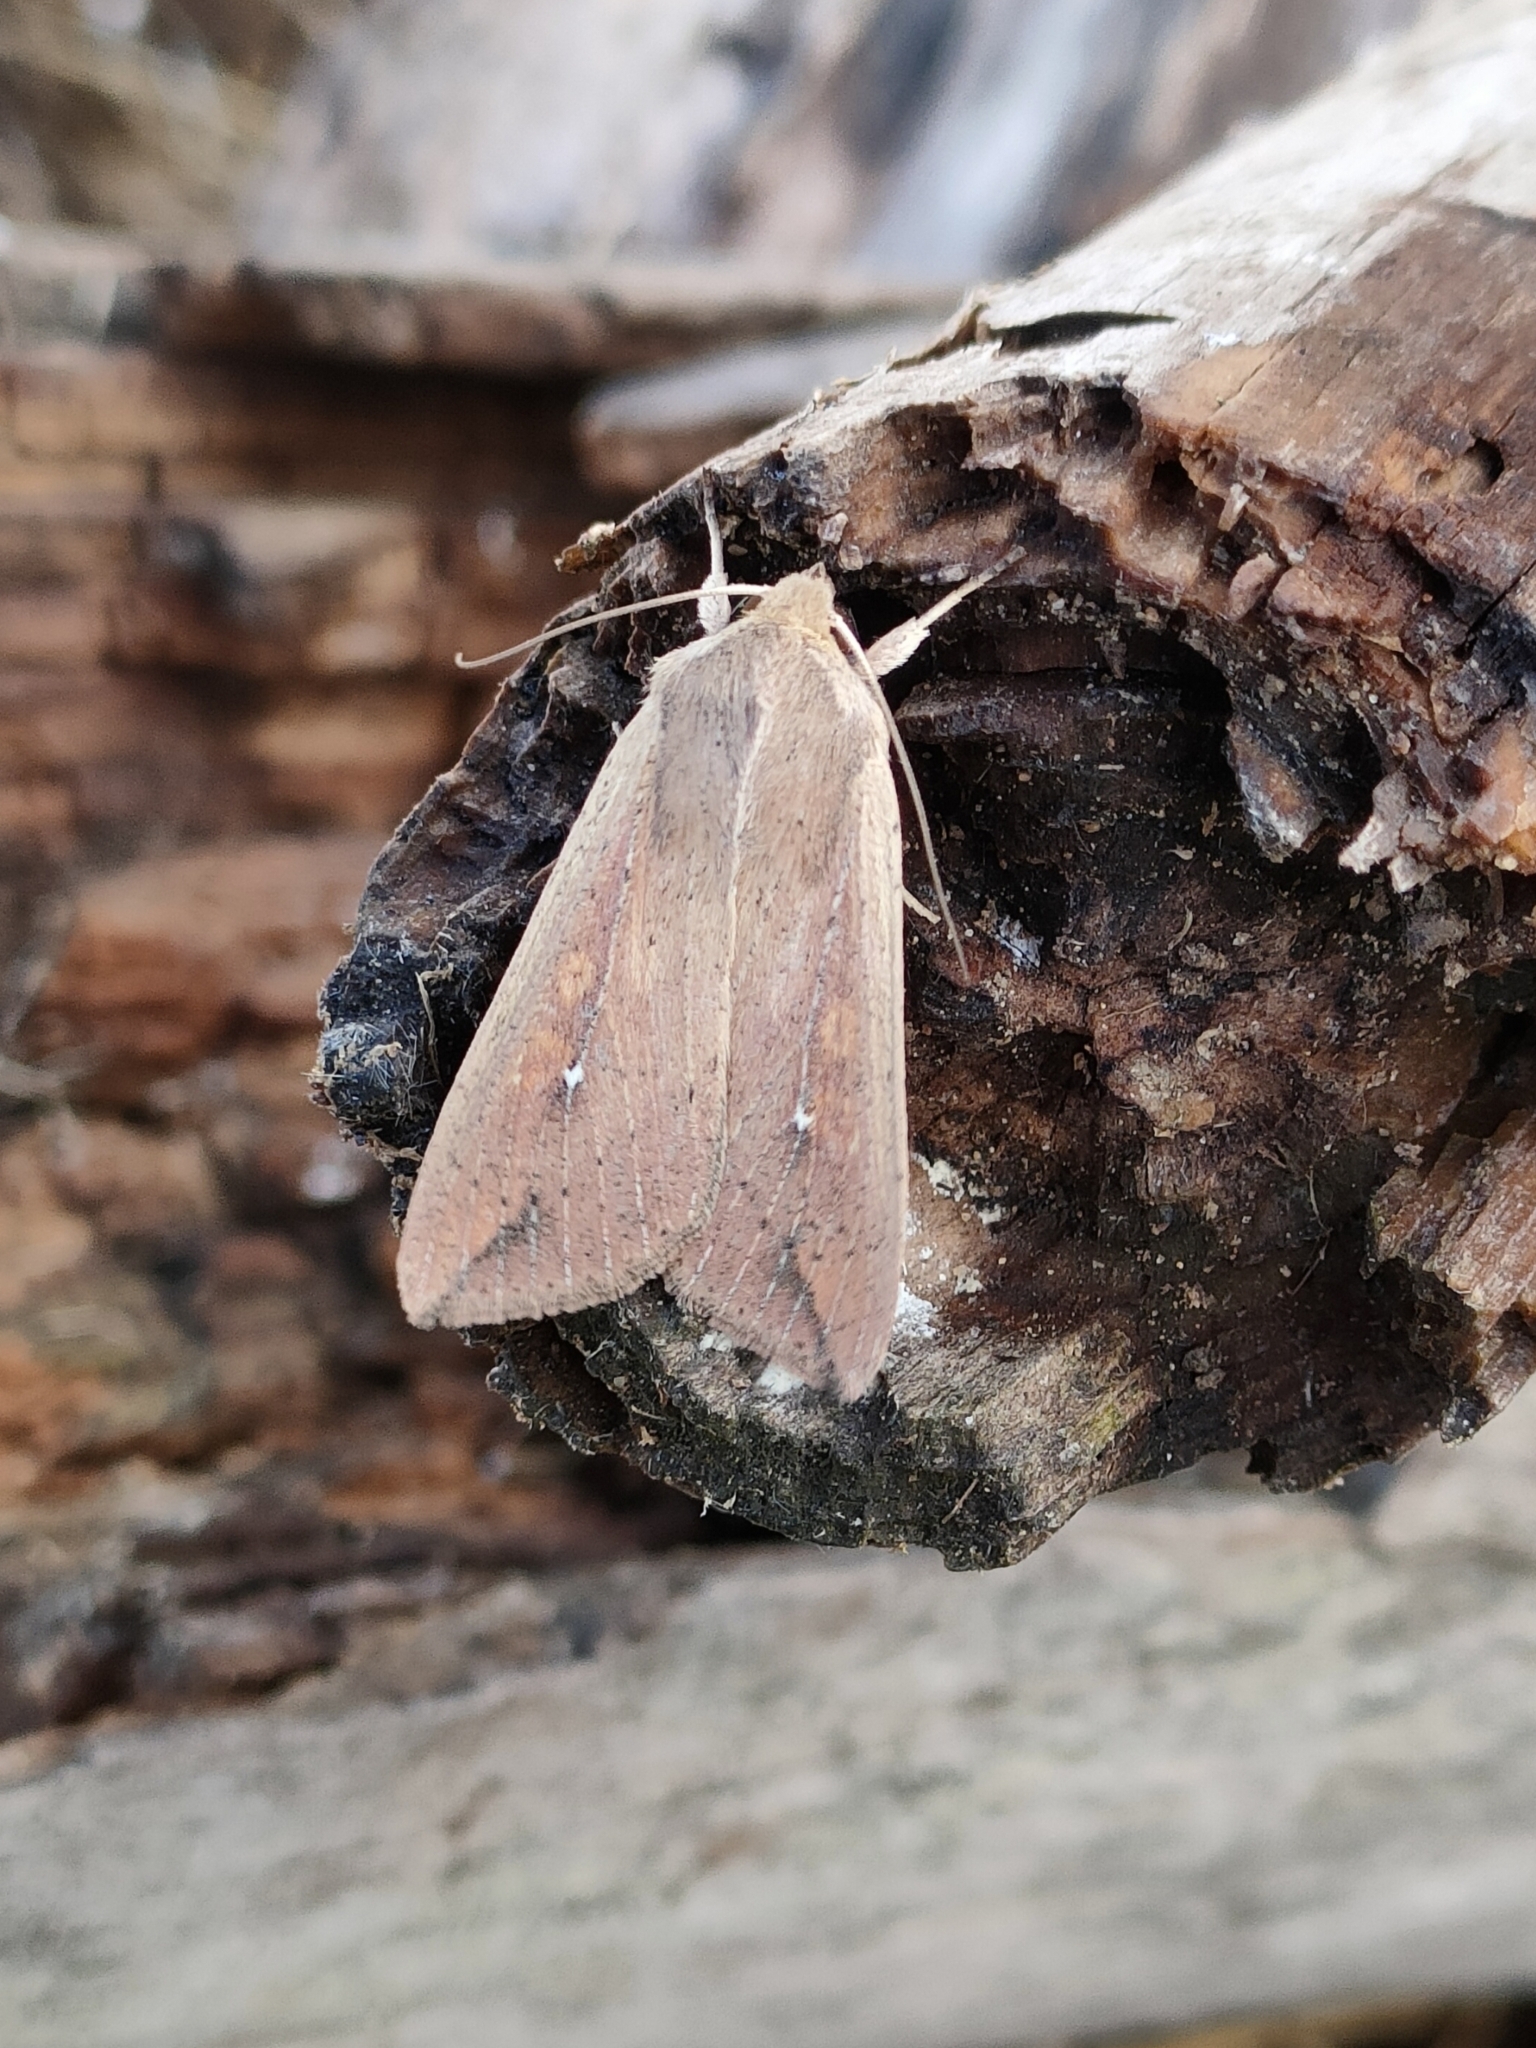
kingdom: Animalia
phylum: Arthropoda
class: Insecta
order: Lepidoptera
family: Noctuidae
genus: Mythimna
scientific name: Mythimna unipuncta
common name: White-speck
